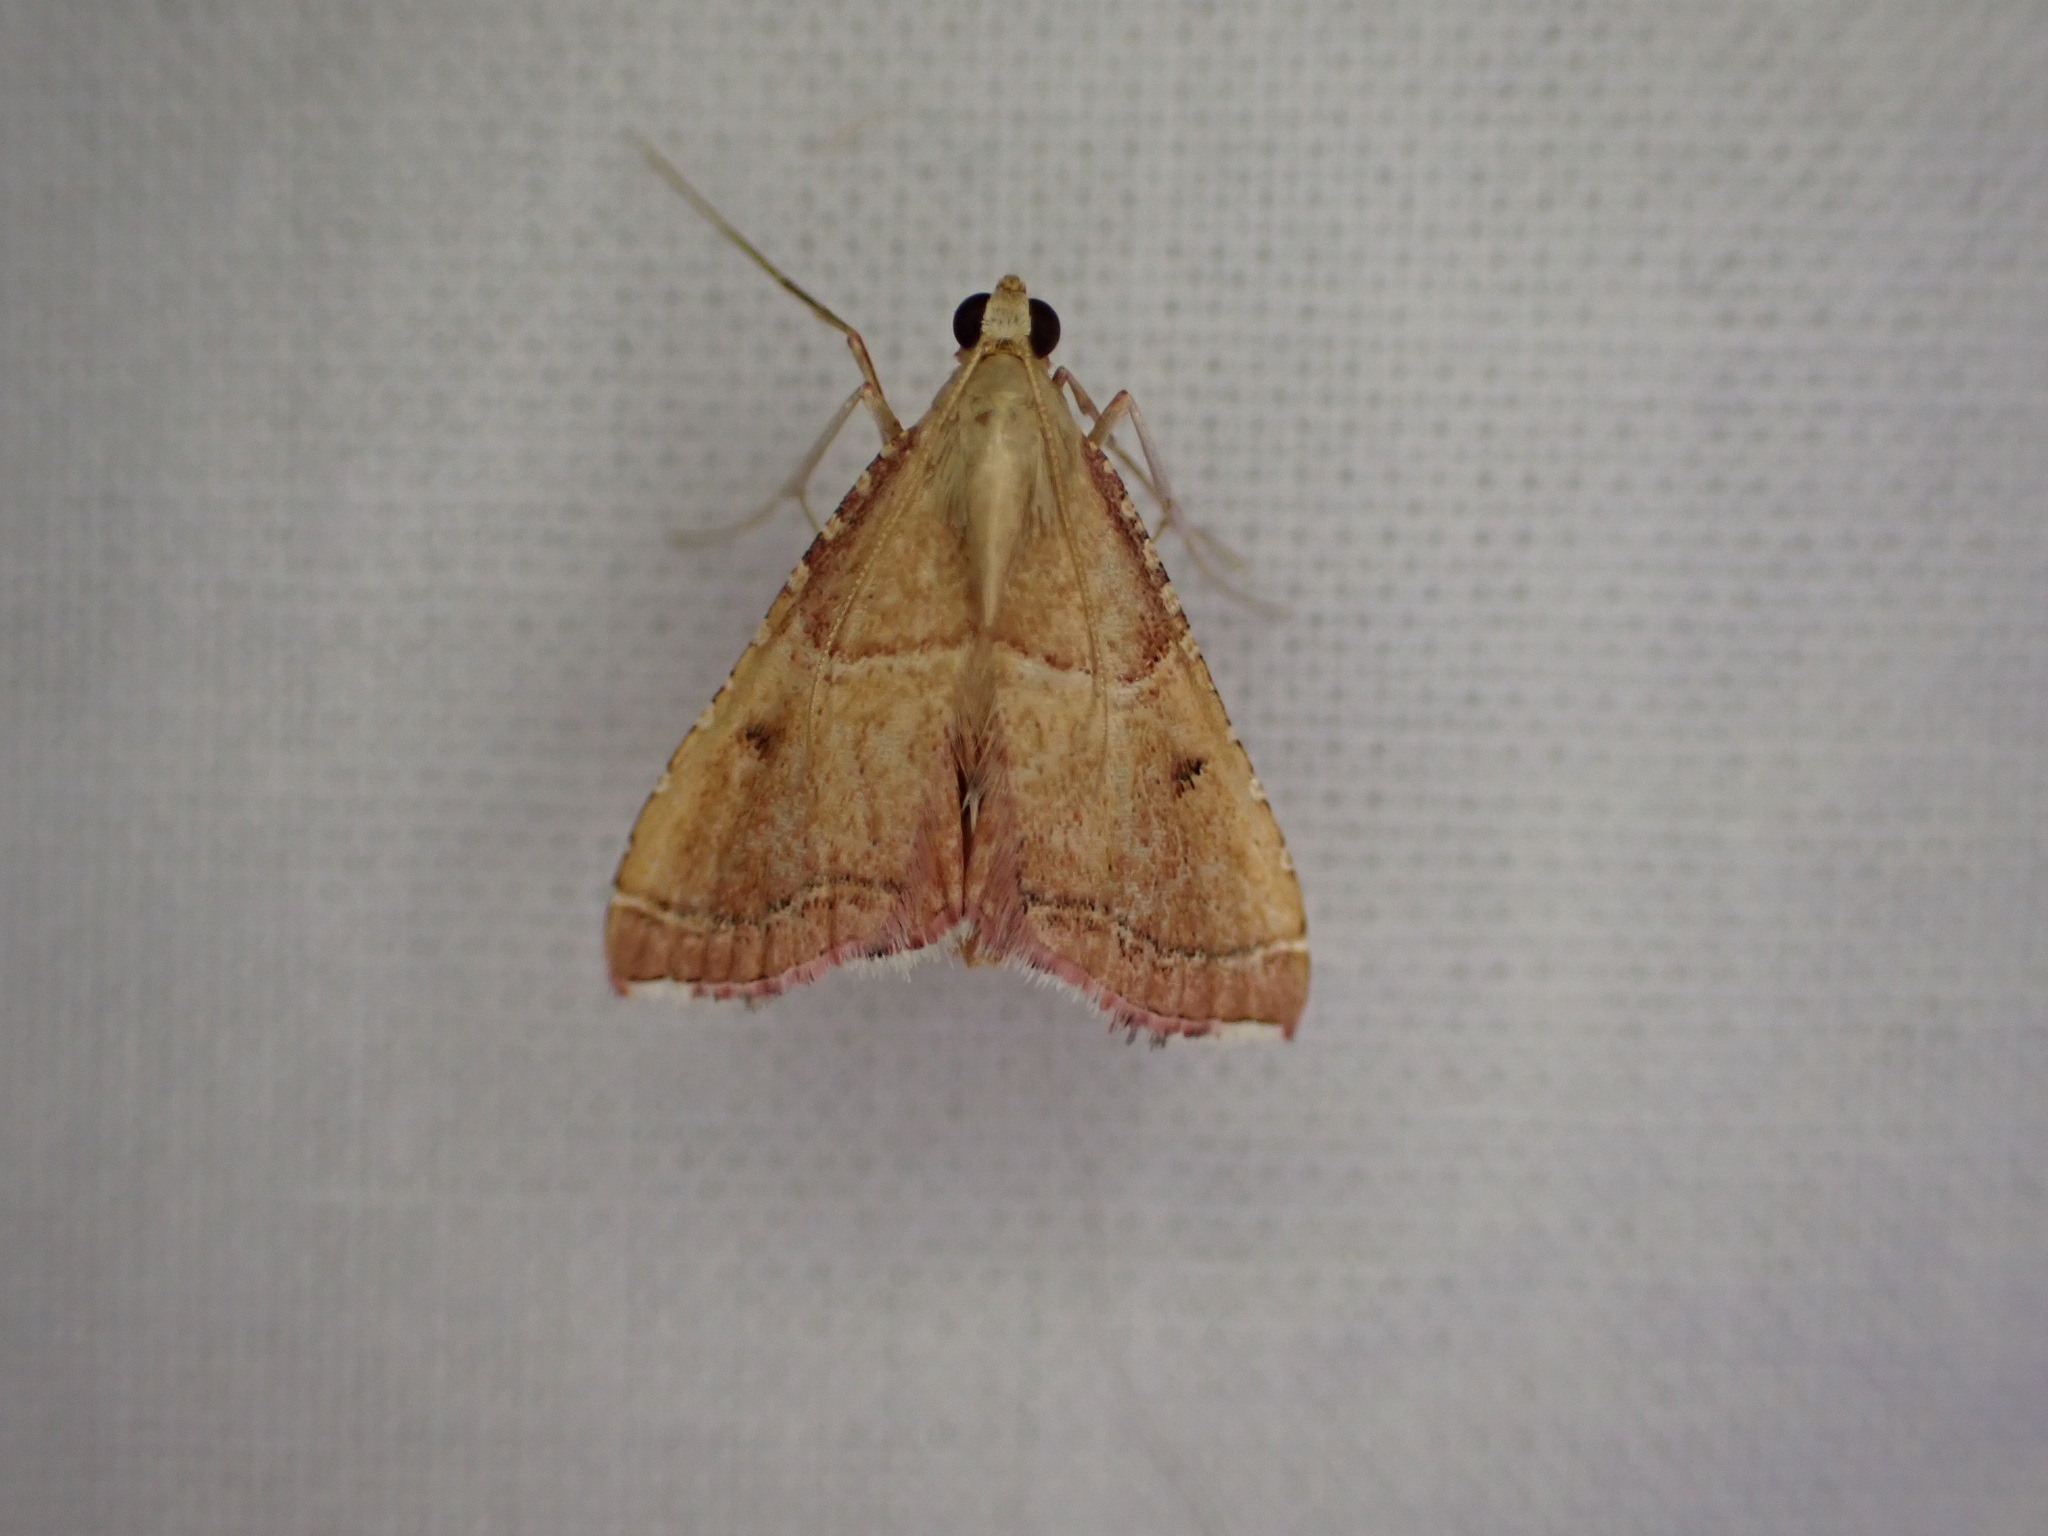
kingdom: Animalia
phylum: Arthropoda
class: Insecta
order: Lepidoptera
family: Pyralidae
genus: Endotricha
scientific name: Endotricha flammealis
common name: Rosy tabby
